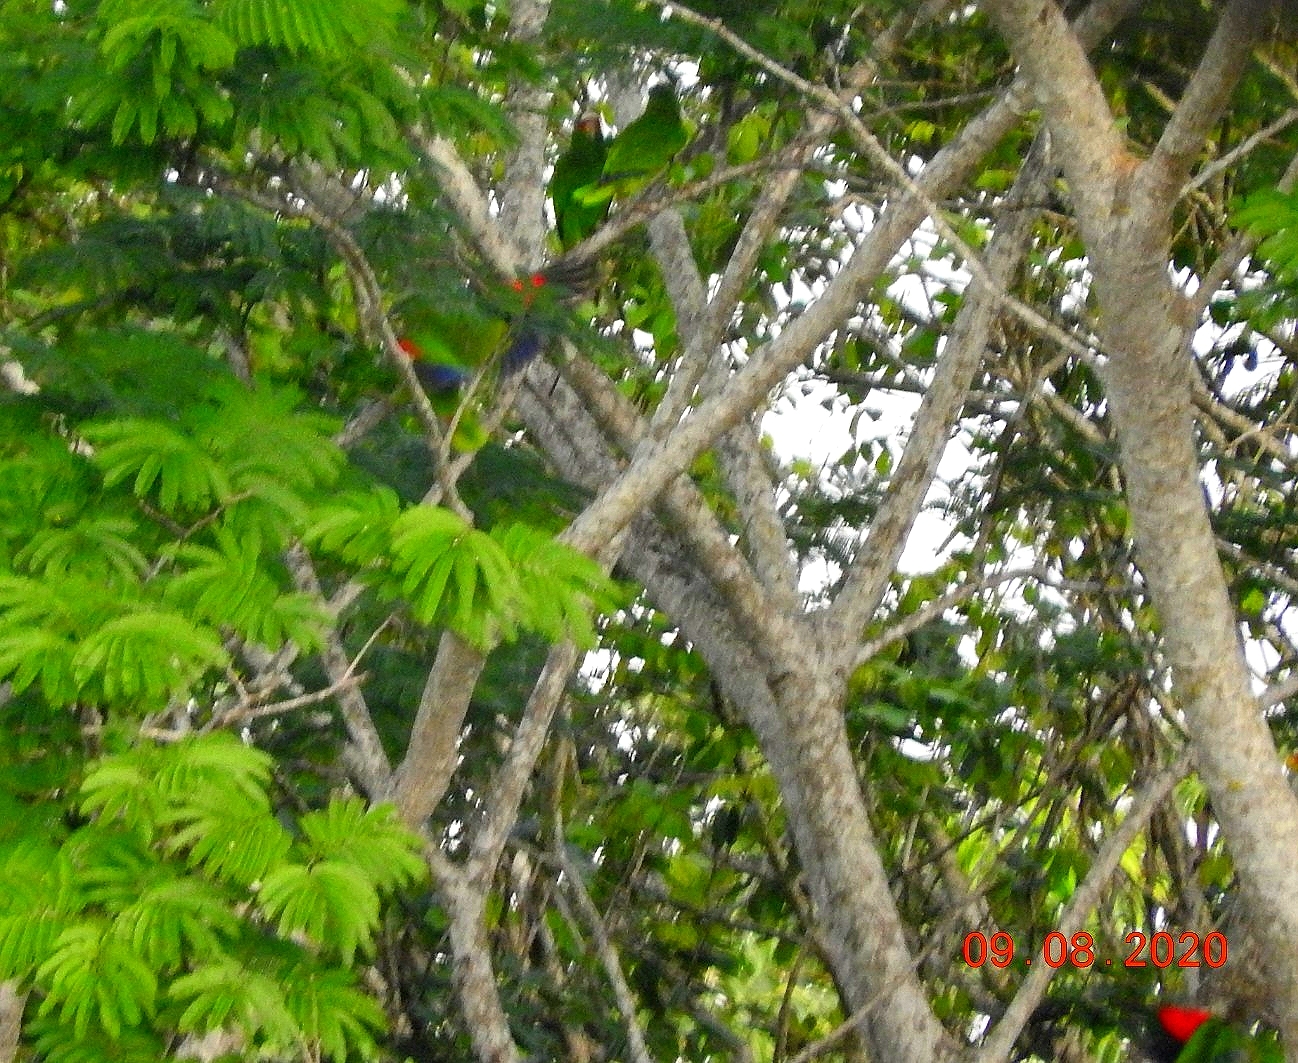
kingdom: Animalia
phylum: Chordata
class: Aves
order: Psittaciformes
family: Psittacidae
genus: Amazona
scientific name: Amazona albifrons
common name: White-fronted amazon
